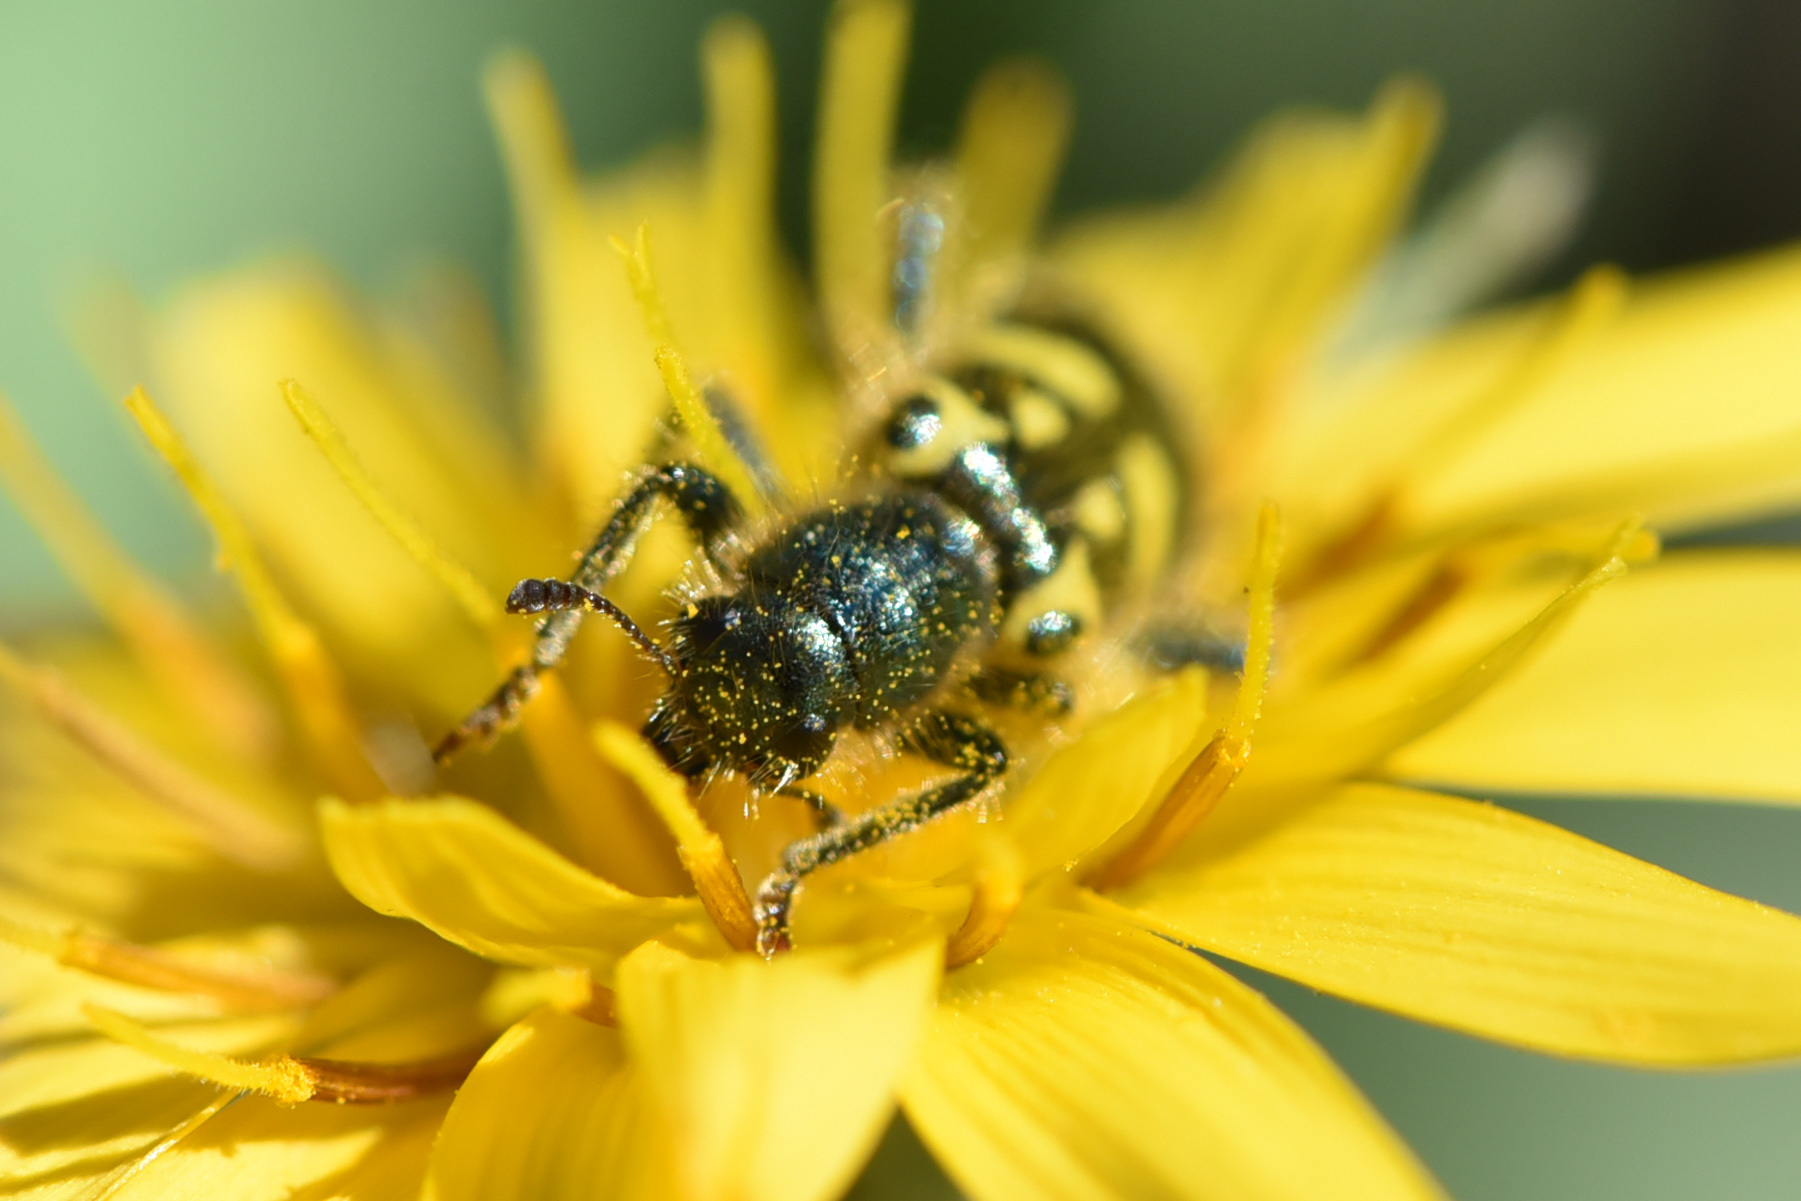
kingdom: Animalia
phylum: Arthropoda
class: Insecta
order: Coleoptera
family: Cleridae
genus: Trichodes
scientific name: Trichodes ornatus
